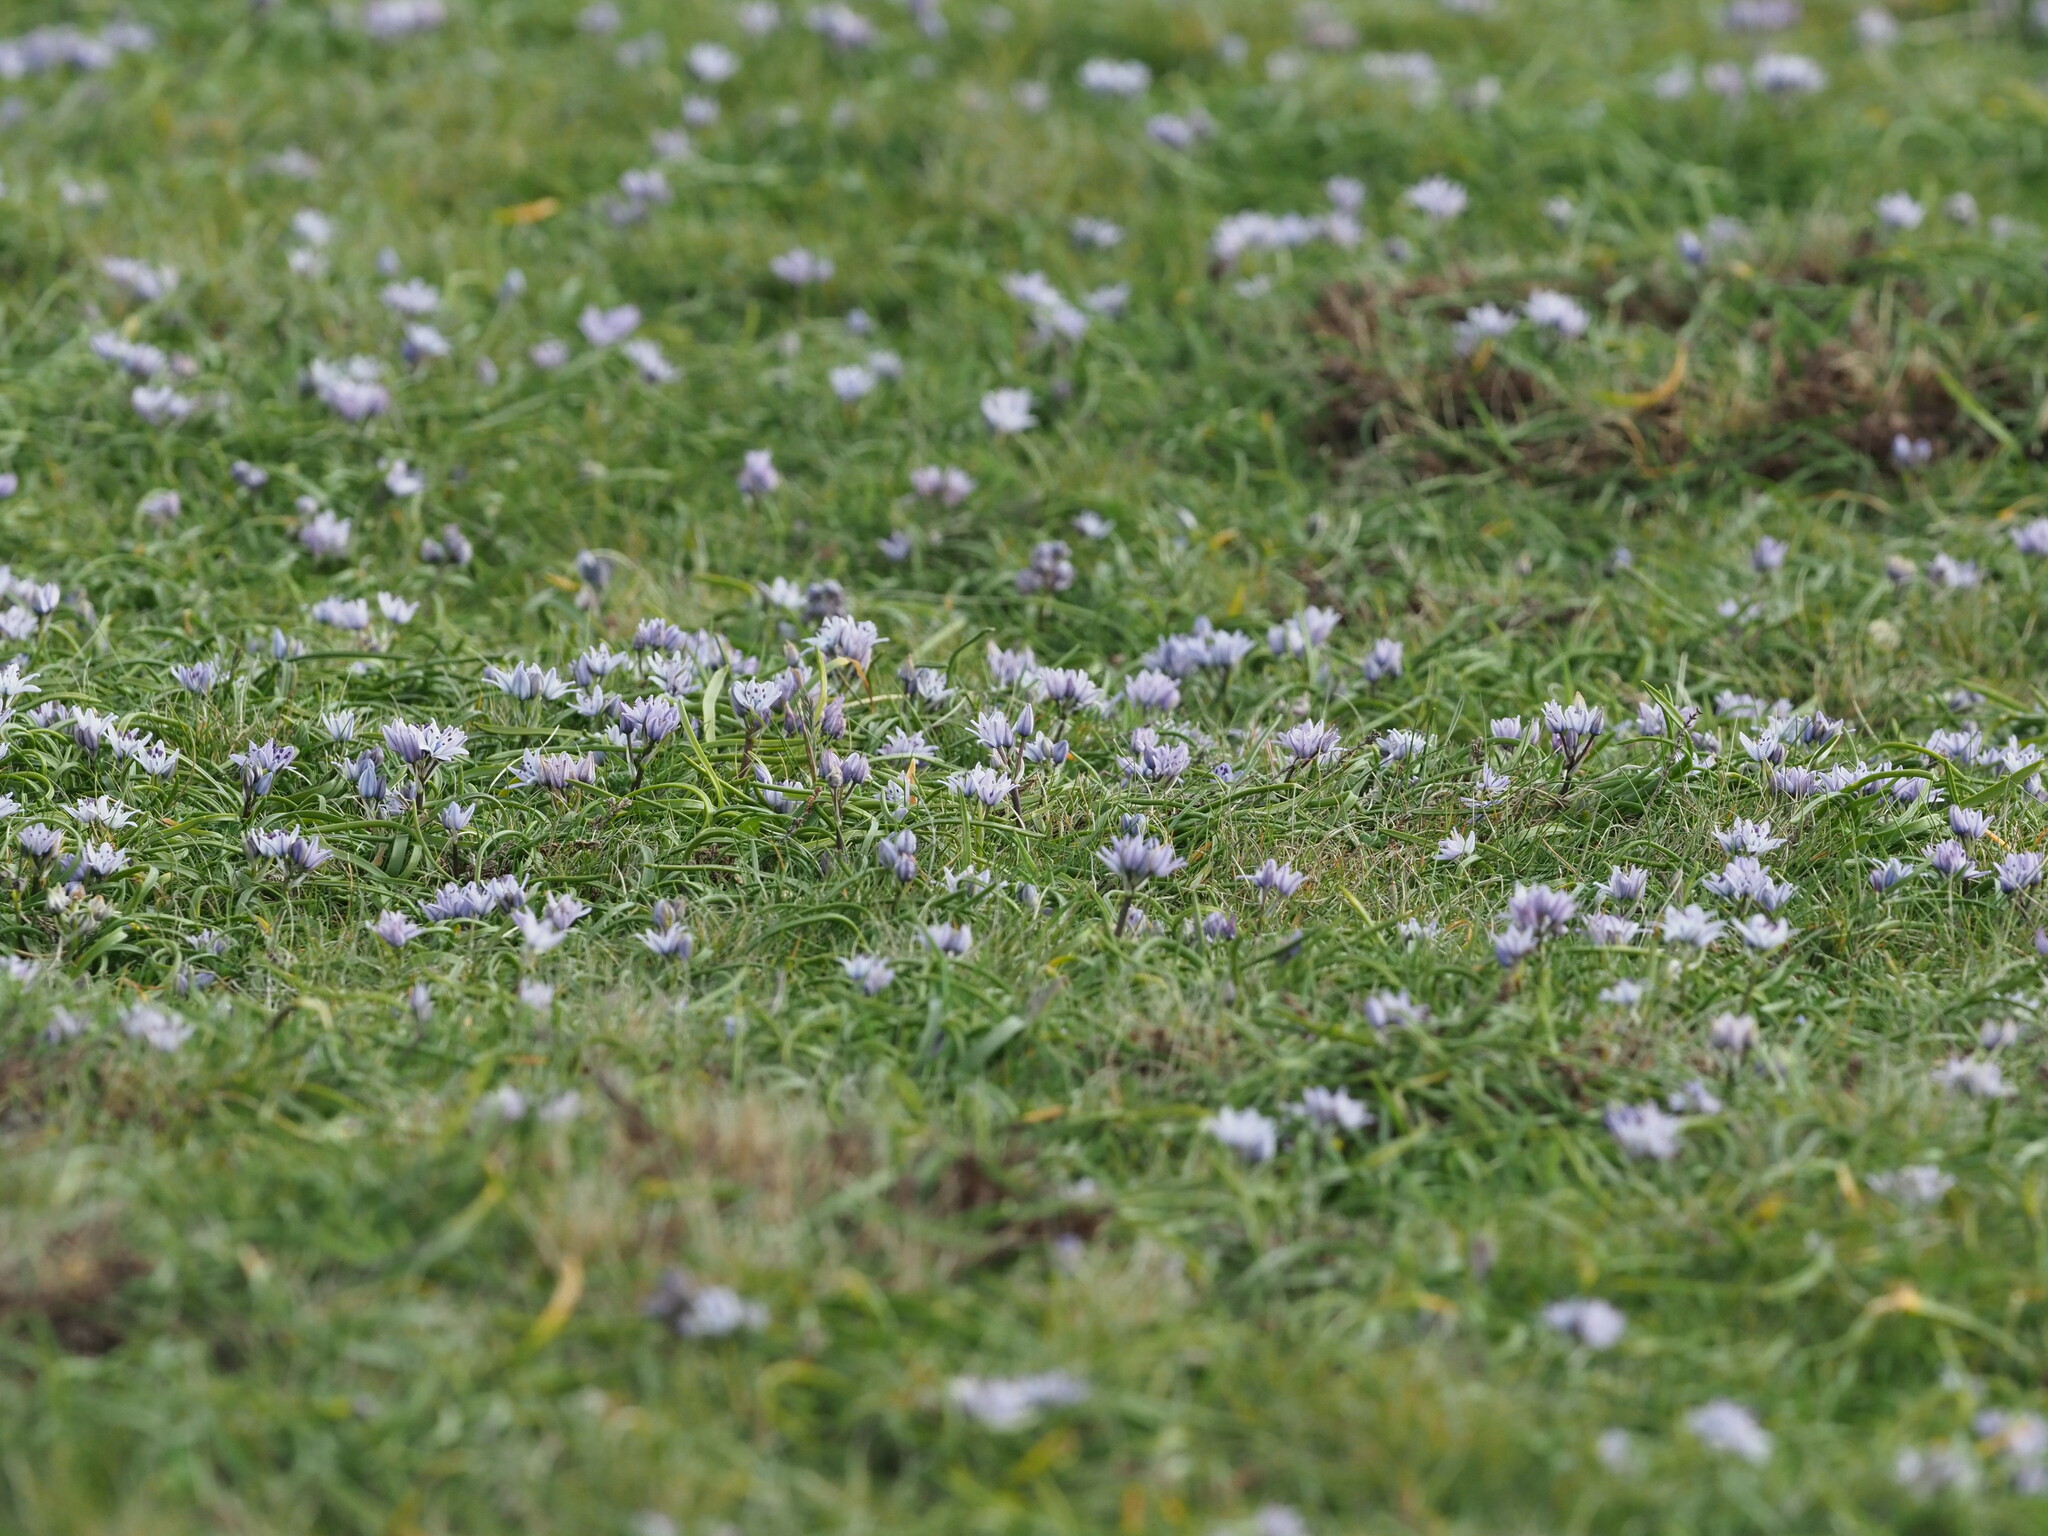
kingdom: Plantae
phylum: Tracheophyta
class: Liliopsida
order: Asparagales
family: Asparagaceae
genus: Scilla
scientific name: Scilla verna
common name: Spring squill
